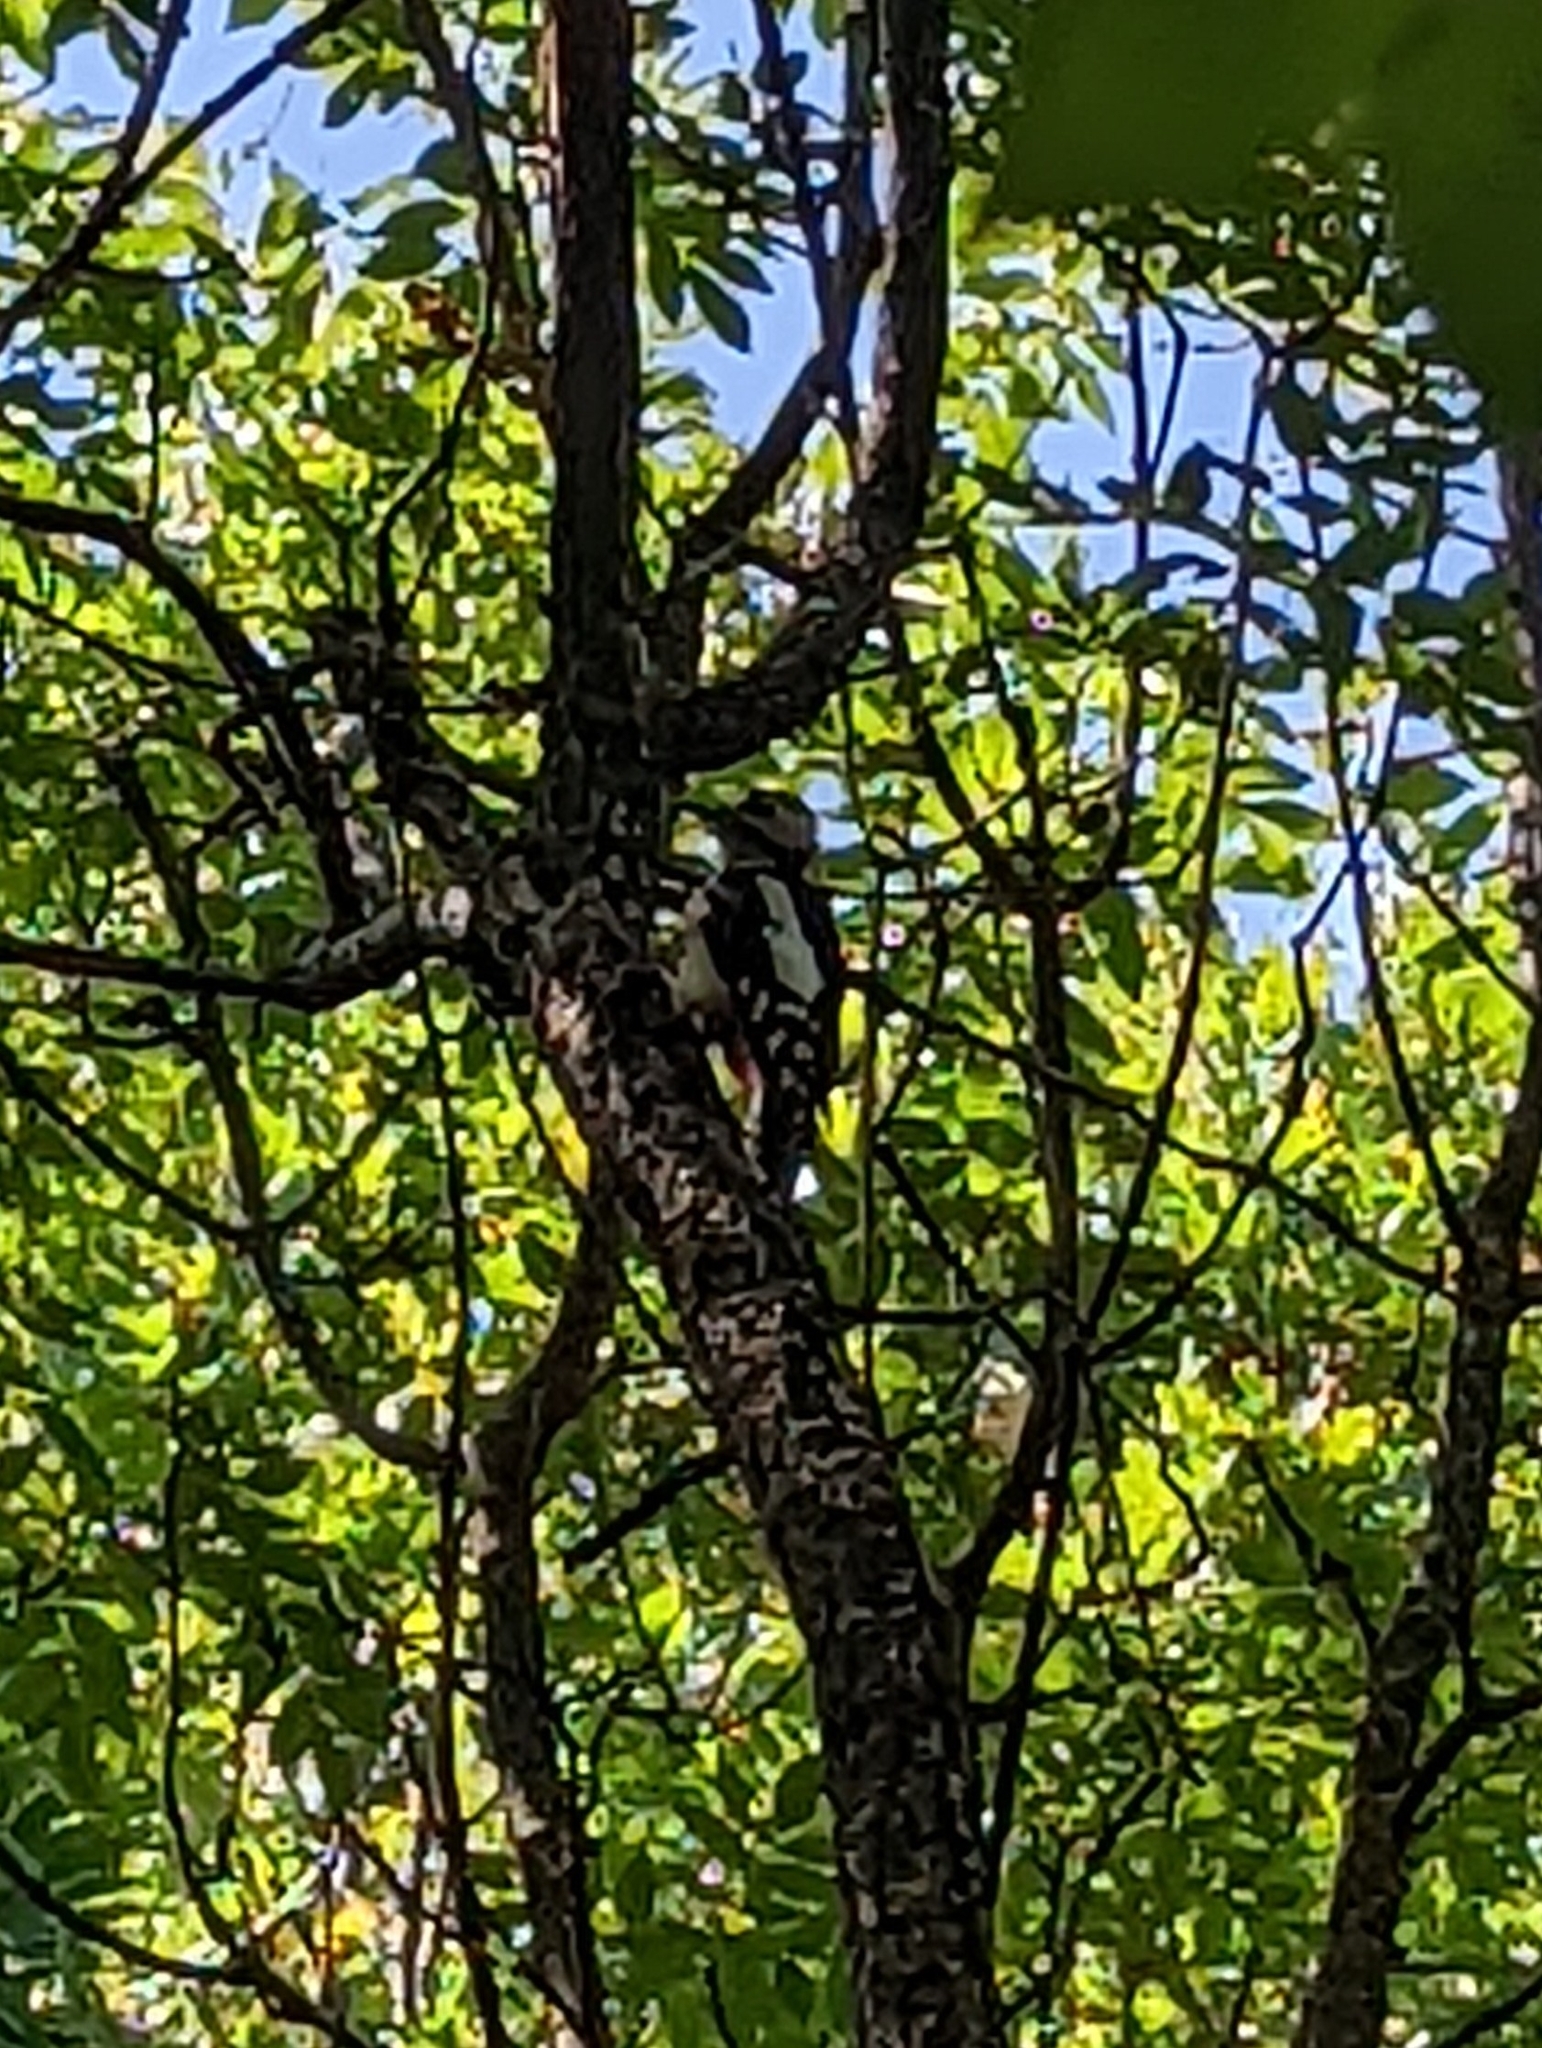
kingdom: Animalia
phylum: Chordata
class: Aves
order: Piciformes
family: Picidae
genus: Dendrocopos
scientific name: Dendrocopos major
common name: Great spotted woodpecker
